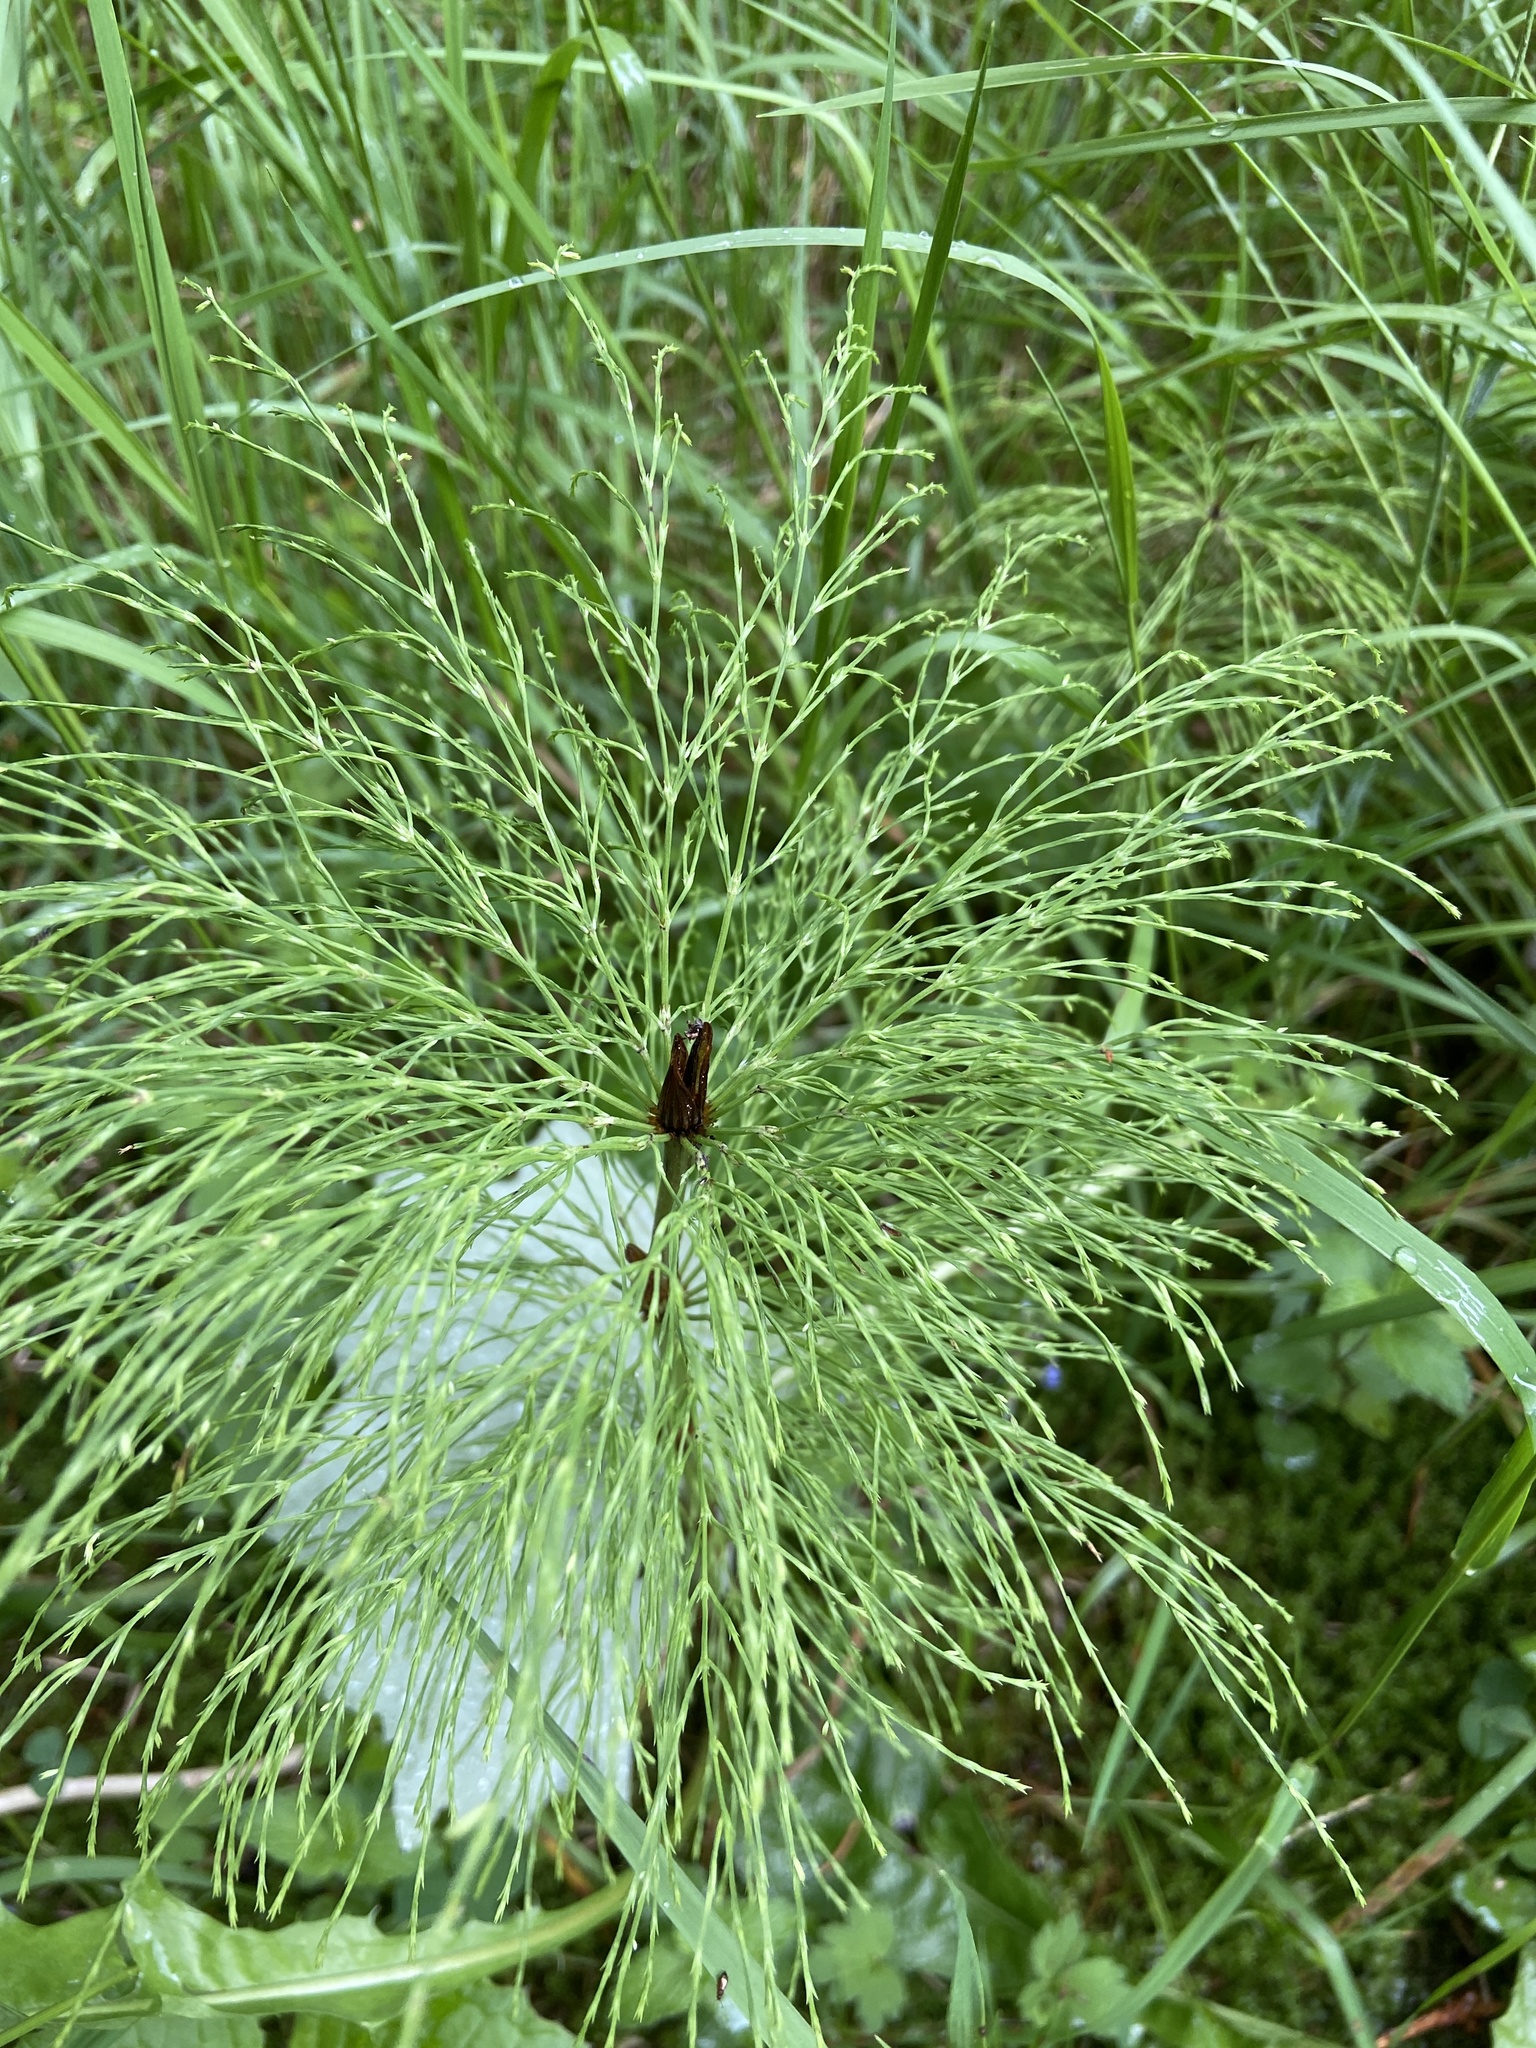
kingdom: Plantae
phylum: Tracheophyta
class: Polypodiopsida
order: Equisetales
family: Equisetaceae
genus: Equisetum
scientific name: Equisetum sylvaticum
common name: Wood horsetail
